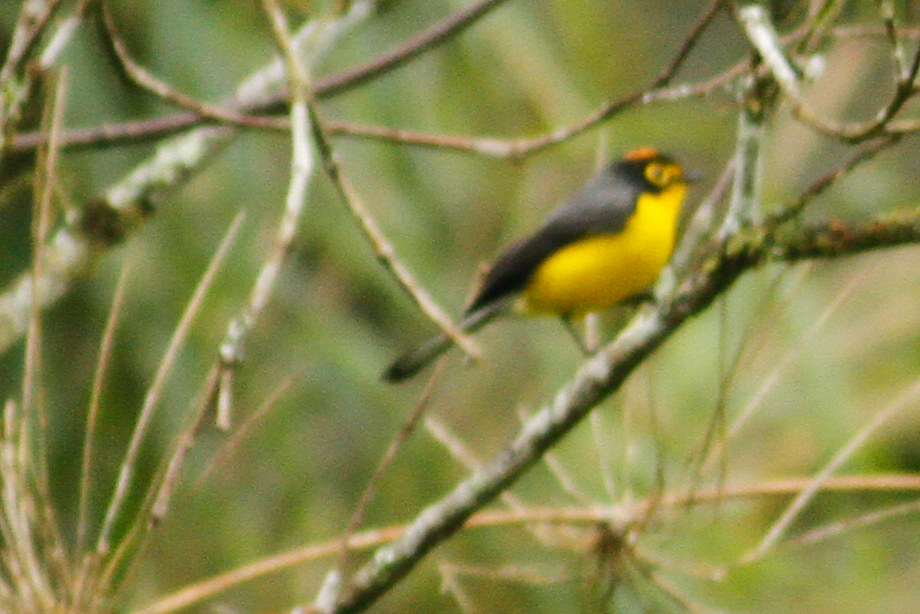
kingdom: Animalia
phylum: Chordata
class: Aves
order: Passeriformes
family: Parulidae
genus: Myioborus
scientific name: Myioborus melanocephalus
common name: Spectacled whitestart
